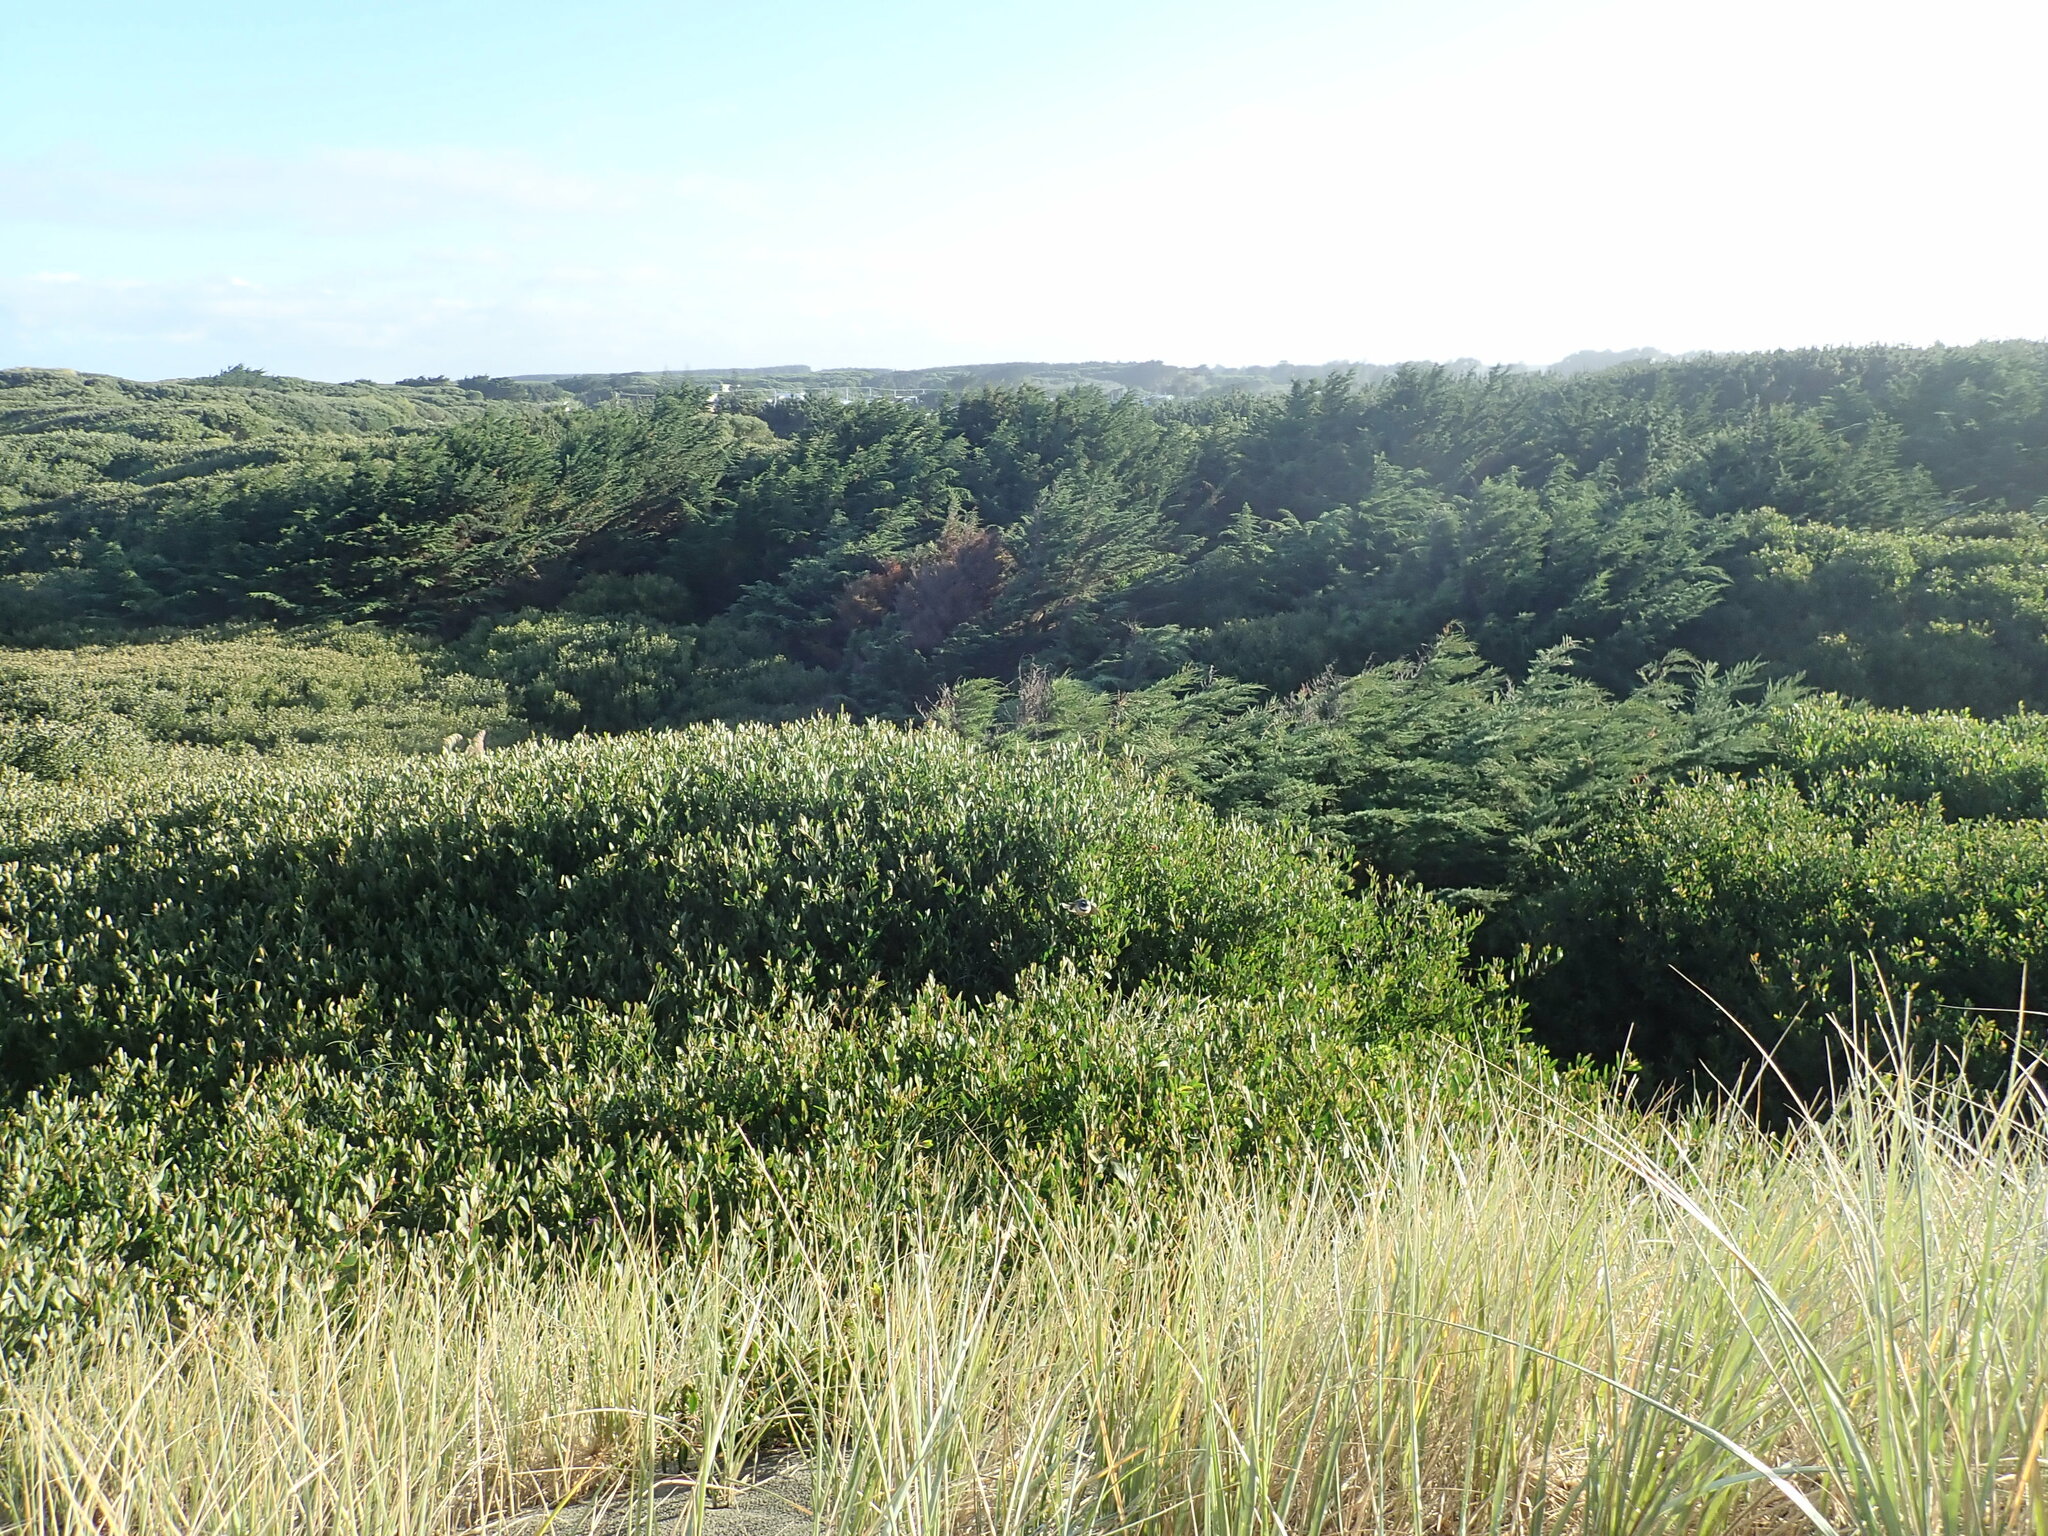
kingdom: Animalia
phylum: Chordata
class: Aves
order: Passeriformes
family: Rhipiduridae
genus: Rhipidura
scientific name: Rhipidura fuliginosa
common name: New zealand fantail
